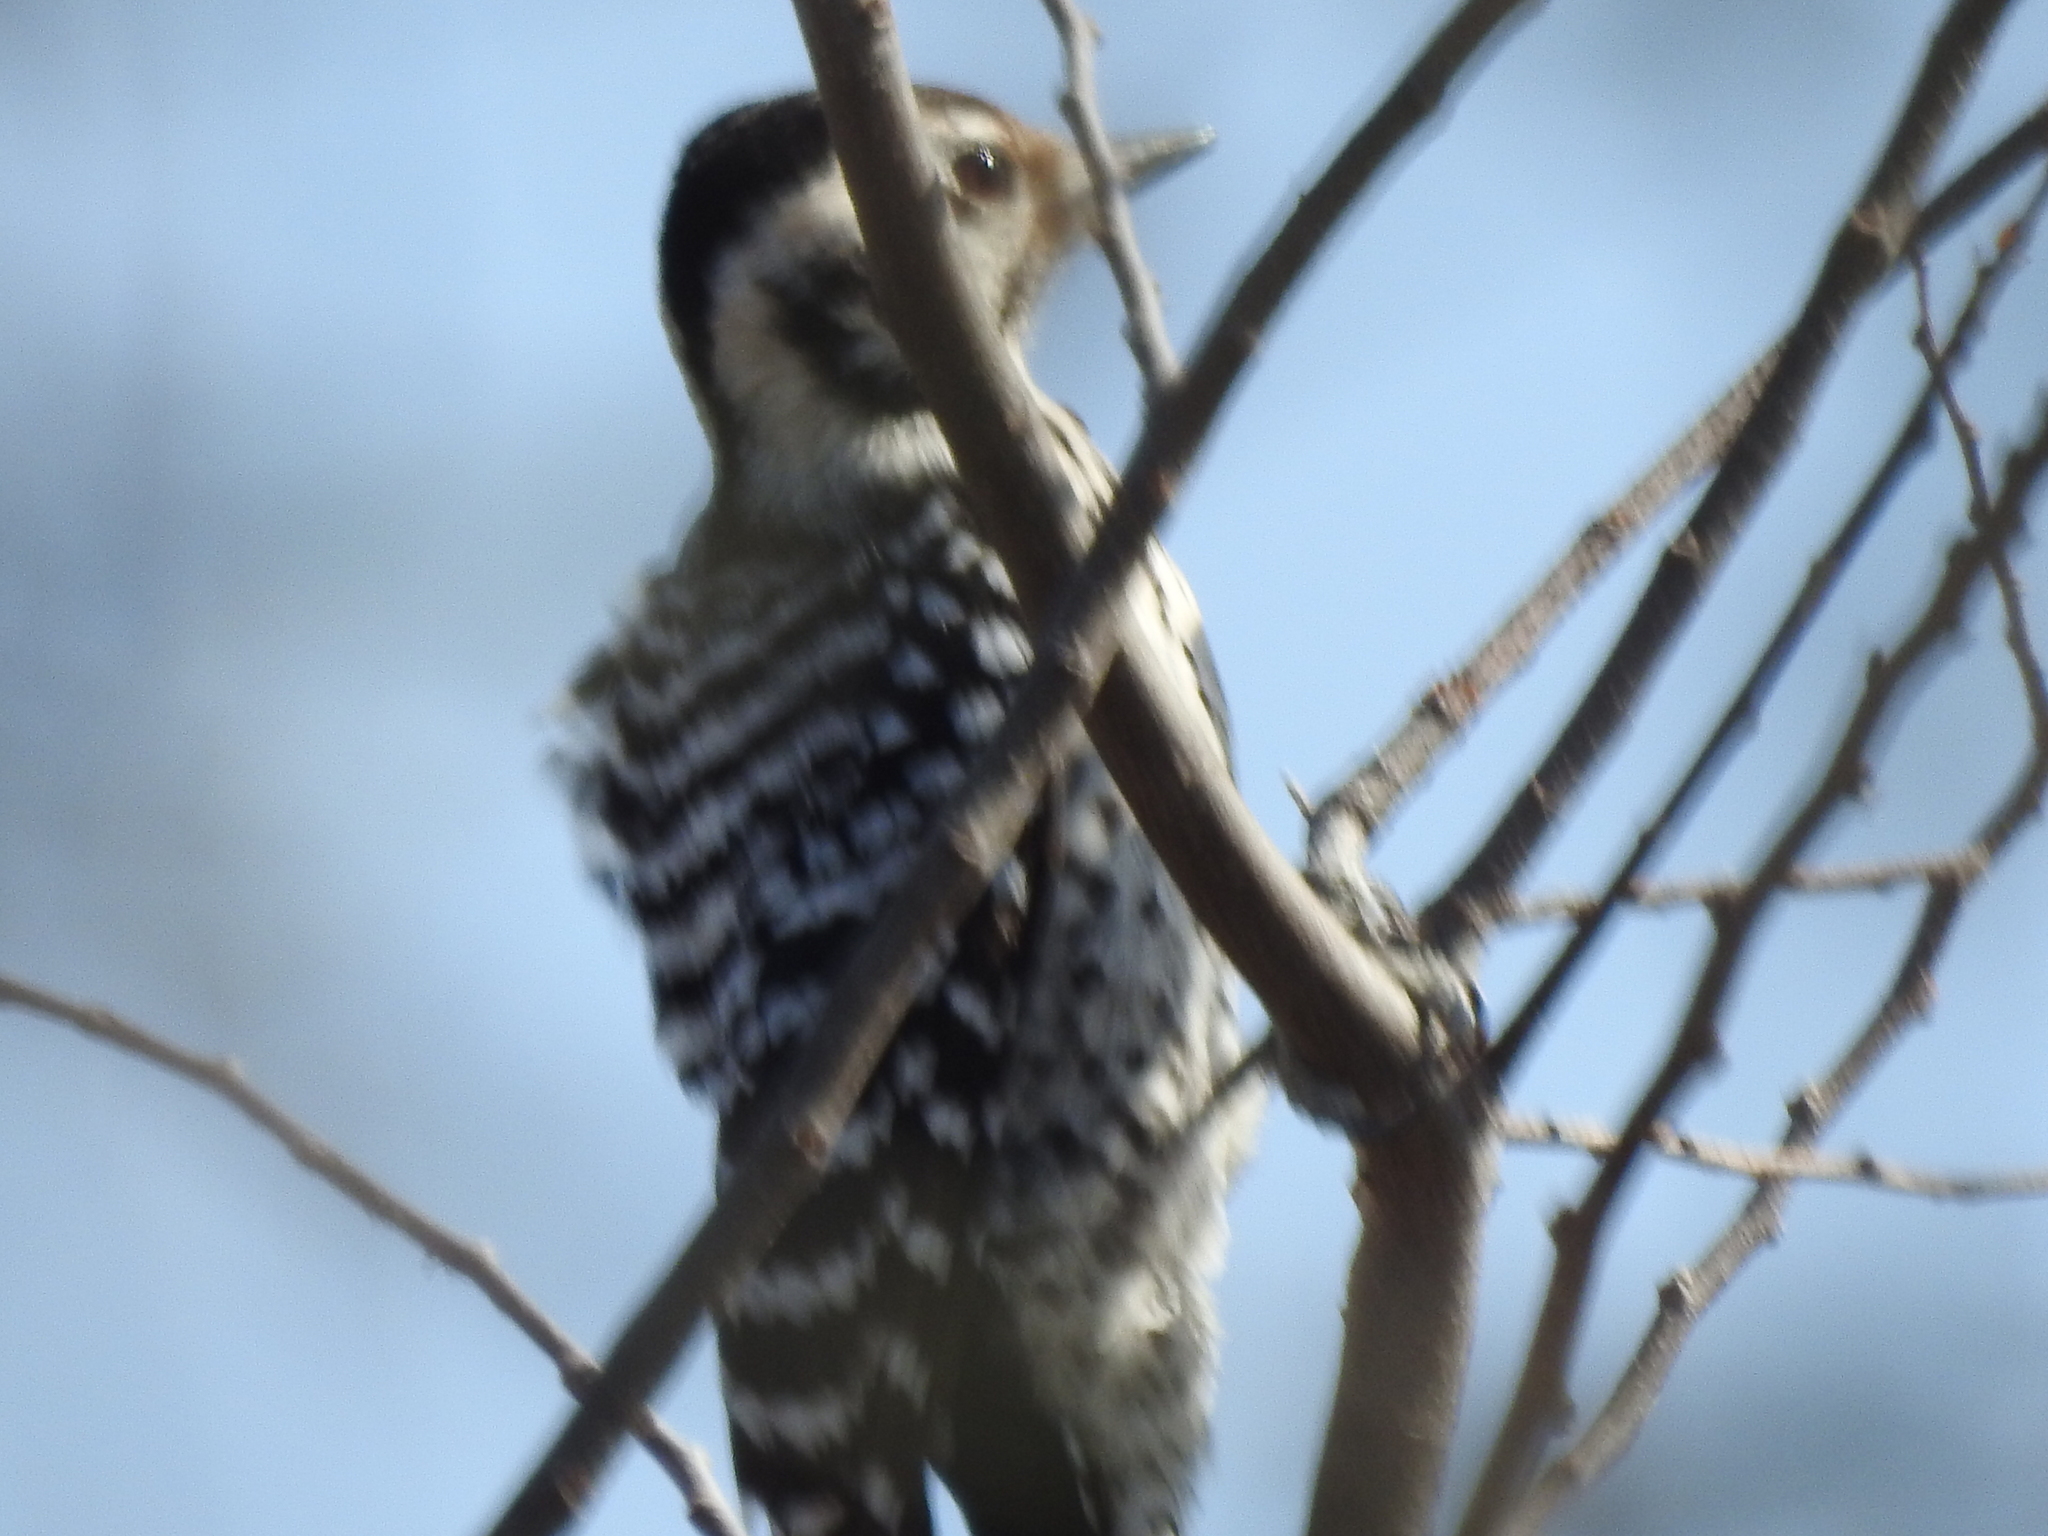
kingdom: Animalia
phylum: Chordata
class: Aves
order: Piciformes
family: Picidae
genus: Dryobates
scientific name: Dryobates scalaris
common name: Ladder-backed woodpecker
